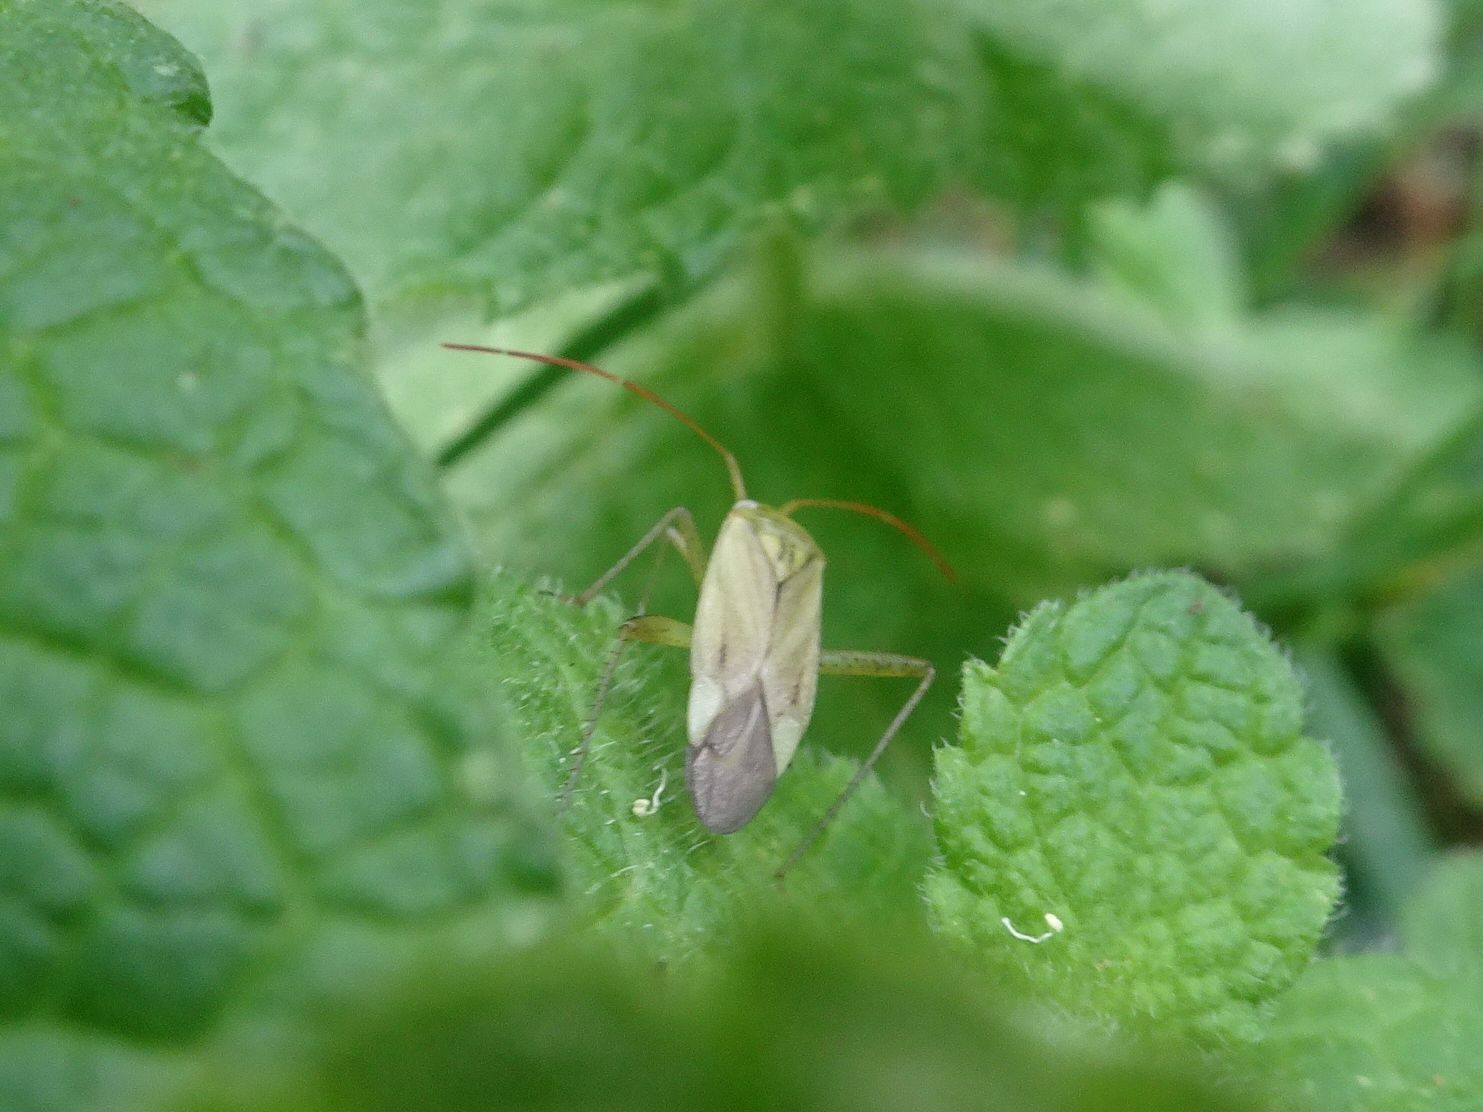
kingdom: Animalia
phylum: Arthropoda
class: Insecta
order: Hemiptera
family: Miridae
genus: Adelphocoris
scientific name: Adelphocoris lineolatus
